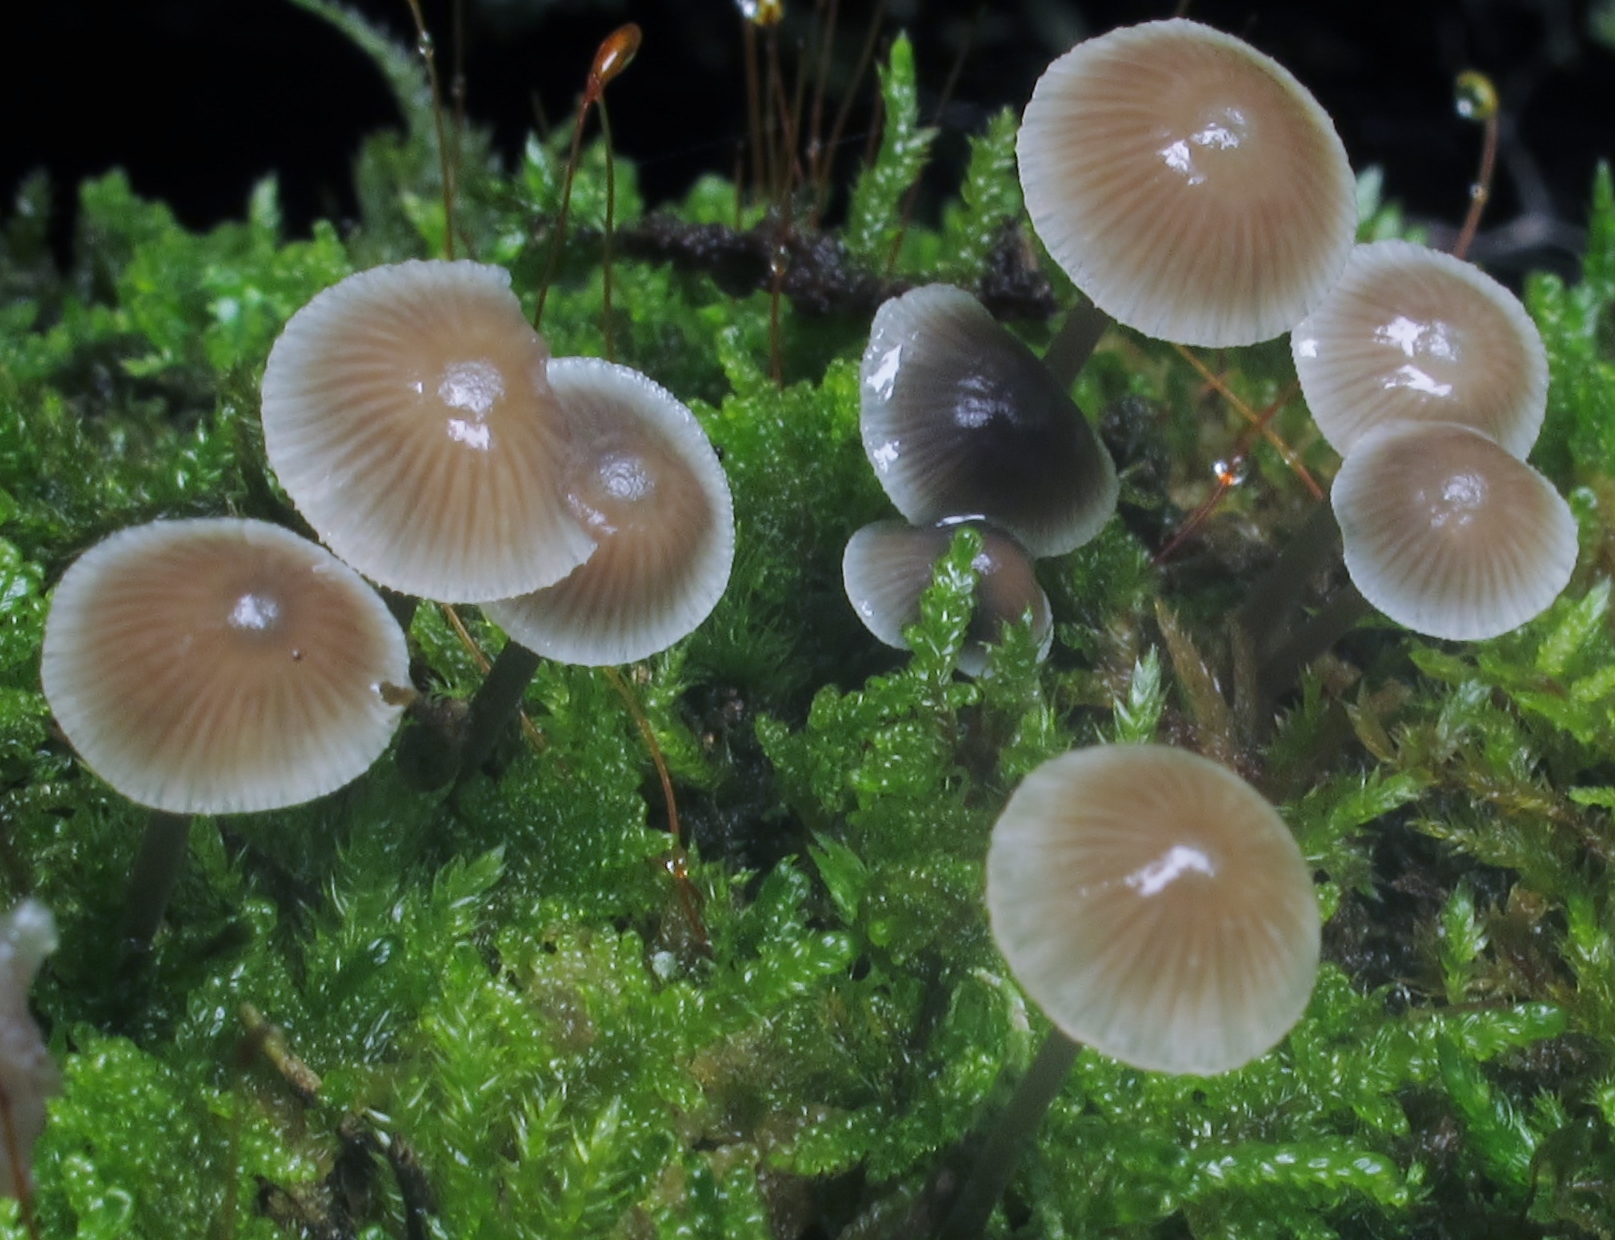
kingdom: Fungi
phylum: Basidiomycota
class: Agaricomycetes
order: Agaricales
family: Mycenaceae
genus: Mycena
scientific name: Mycena subcaerulea
